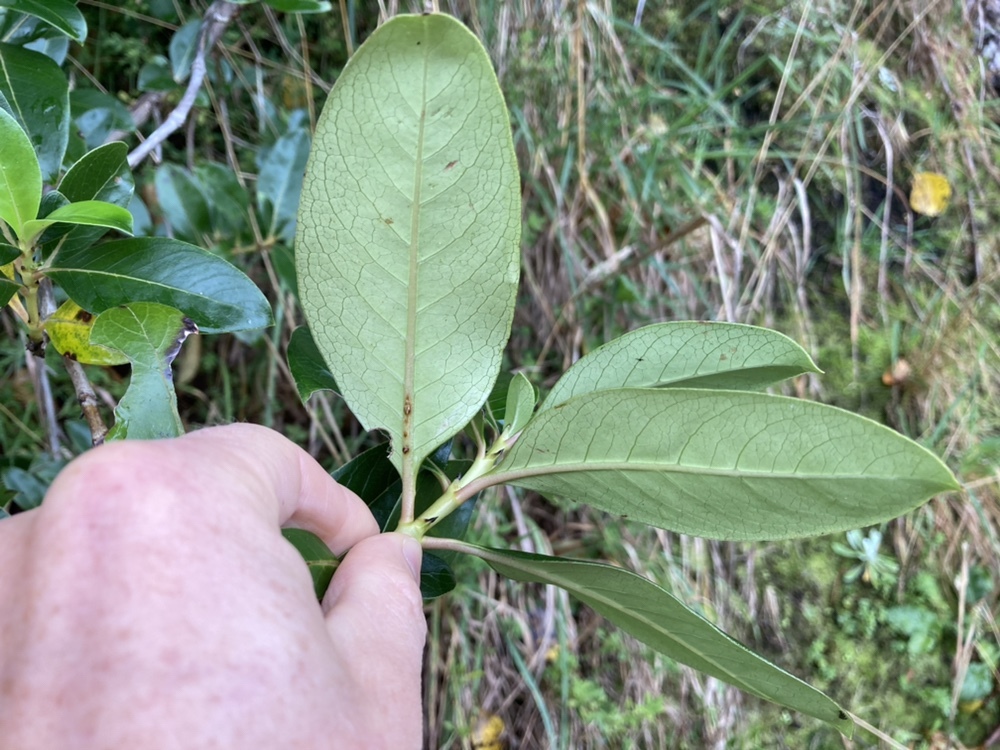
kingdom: Plantae
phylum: Tracheophyta
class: Magnoliopsida
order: Gentianales
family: Rubiaceae
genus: Coprosma
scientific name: Coprosma robusta
